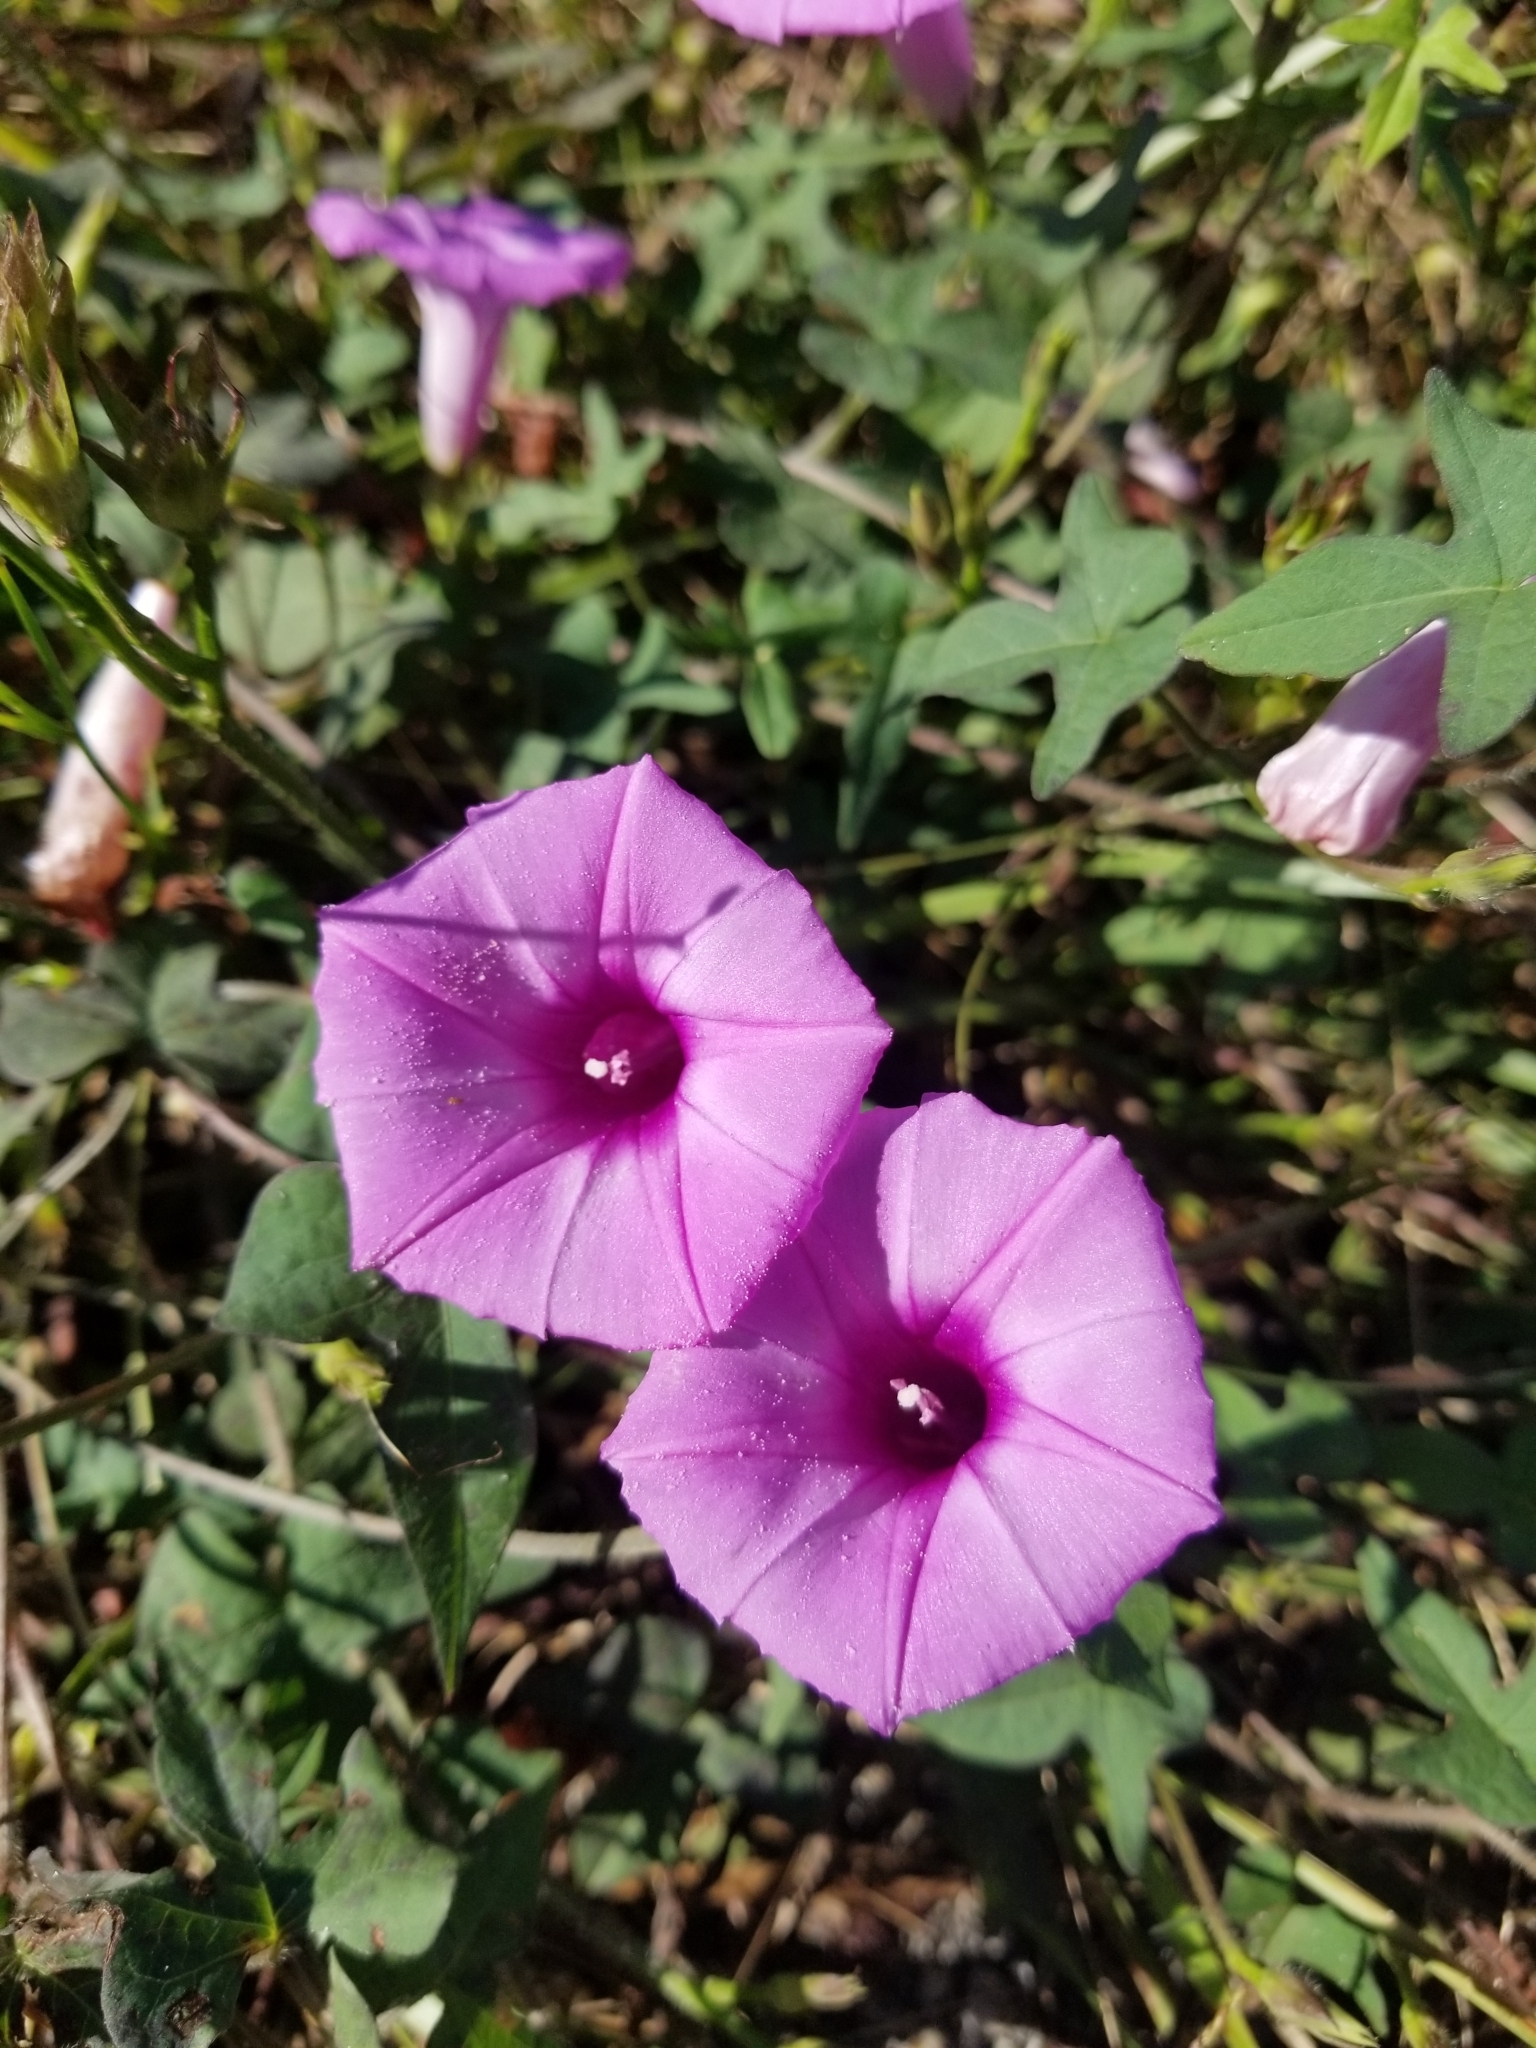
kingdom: Plantae
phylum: Tracheophyta
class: Magnoliopsida
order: Solanales
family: Convolvulaceae
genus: Ipomoea
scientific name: Ipomoea cordatotriloba
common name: Cotton morning glory
